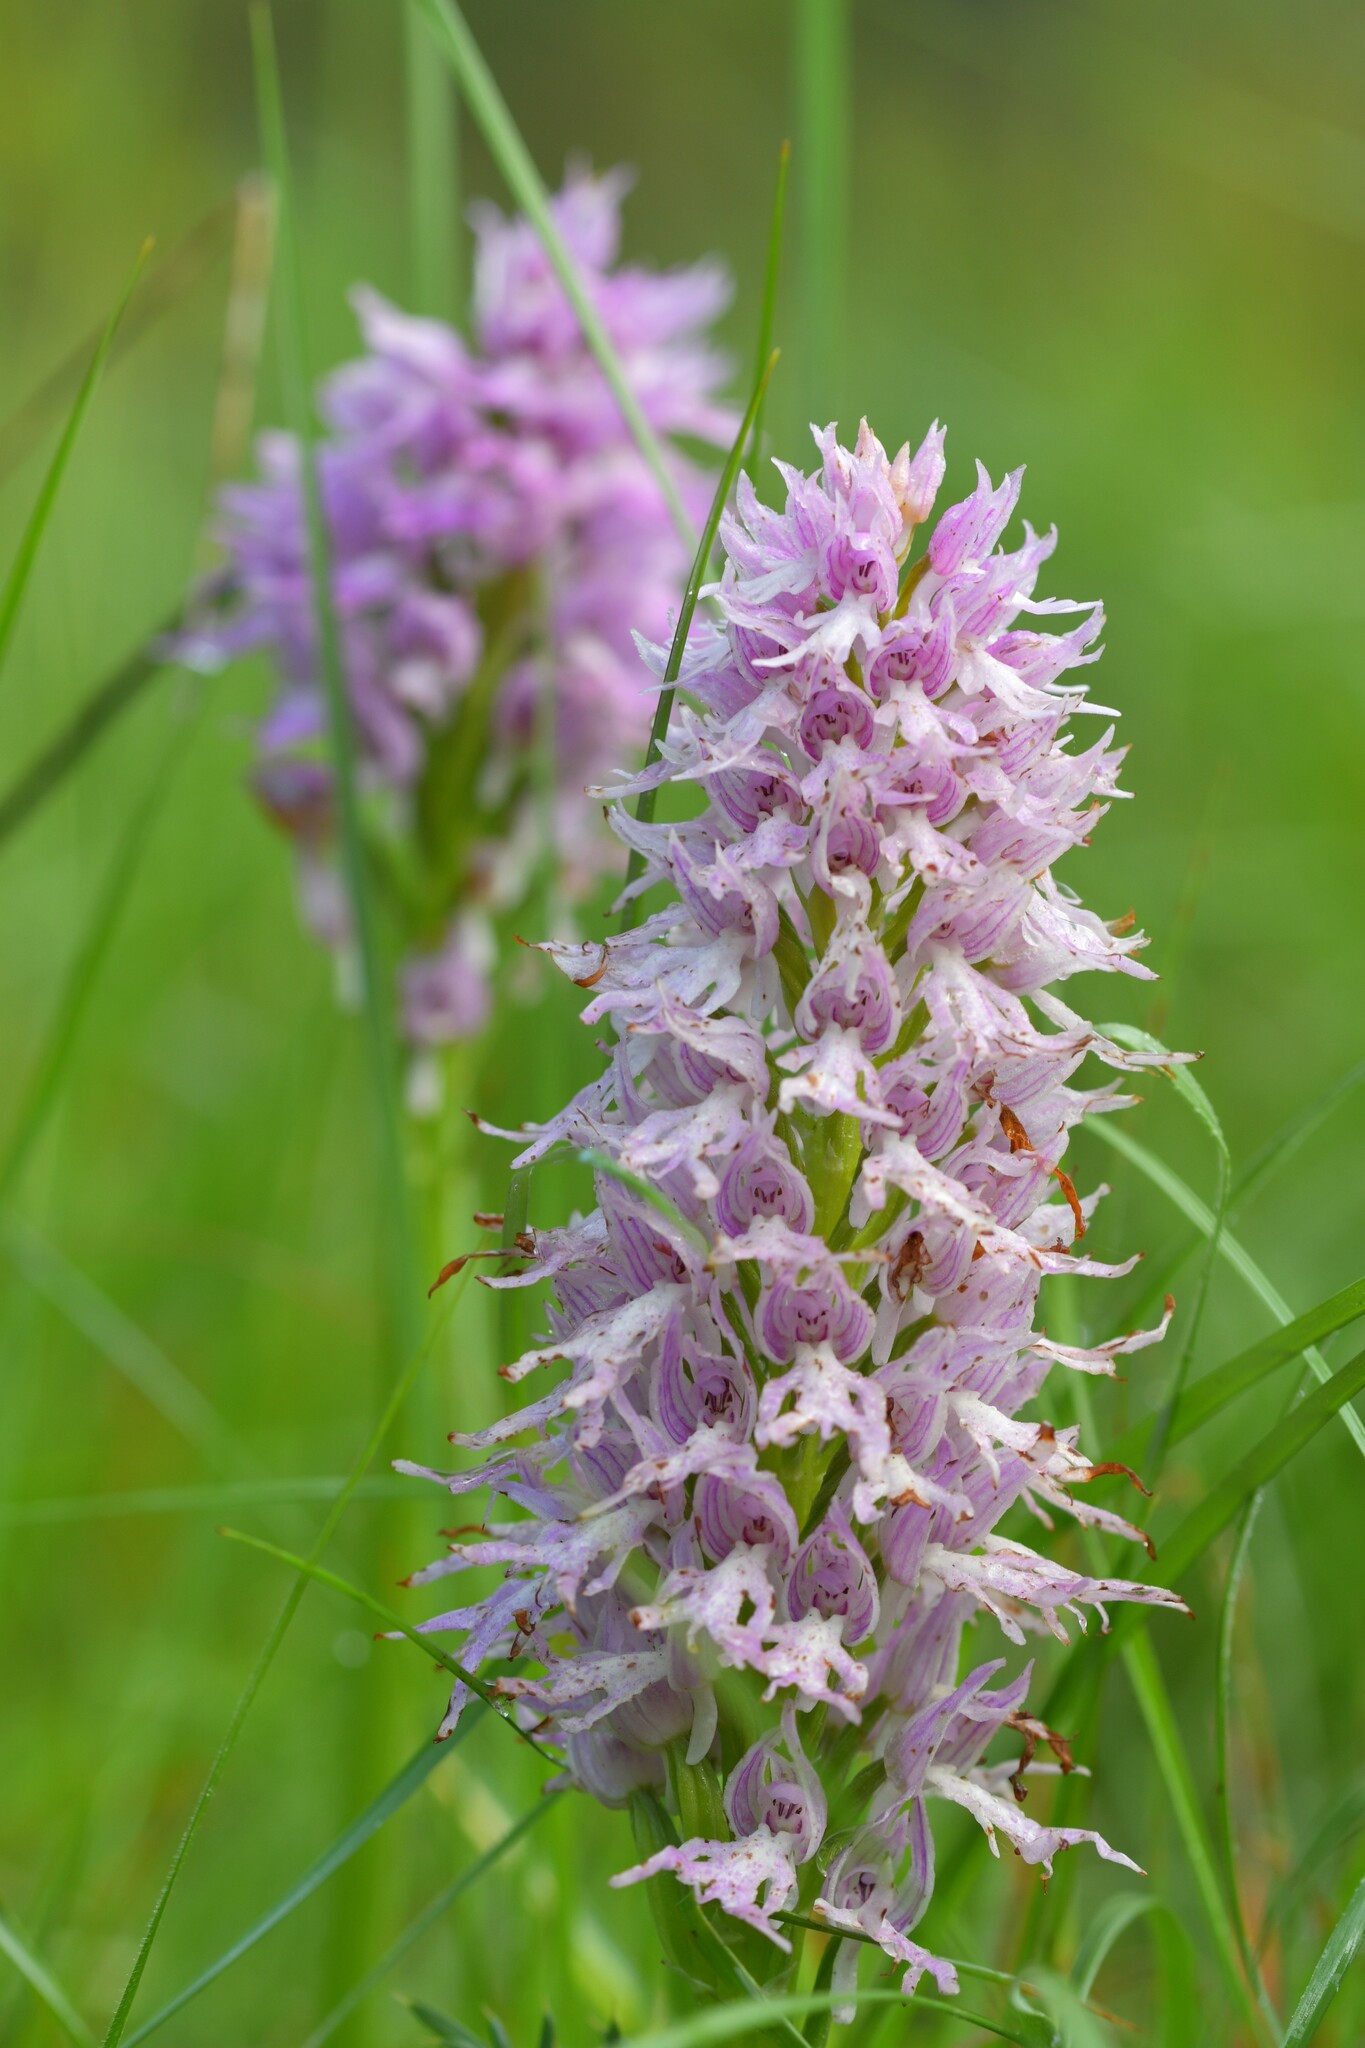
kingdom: Plantae
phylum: Tracheophyta
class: Liliopsida
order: Asparagales
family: Orchidaceae
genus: Orchis
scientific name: Orchis italica
